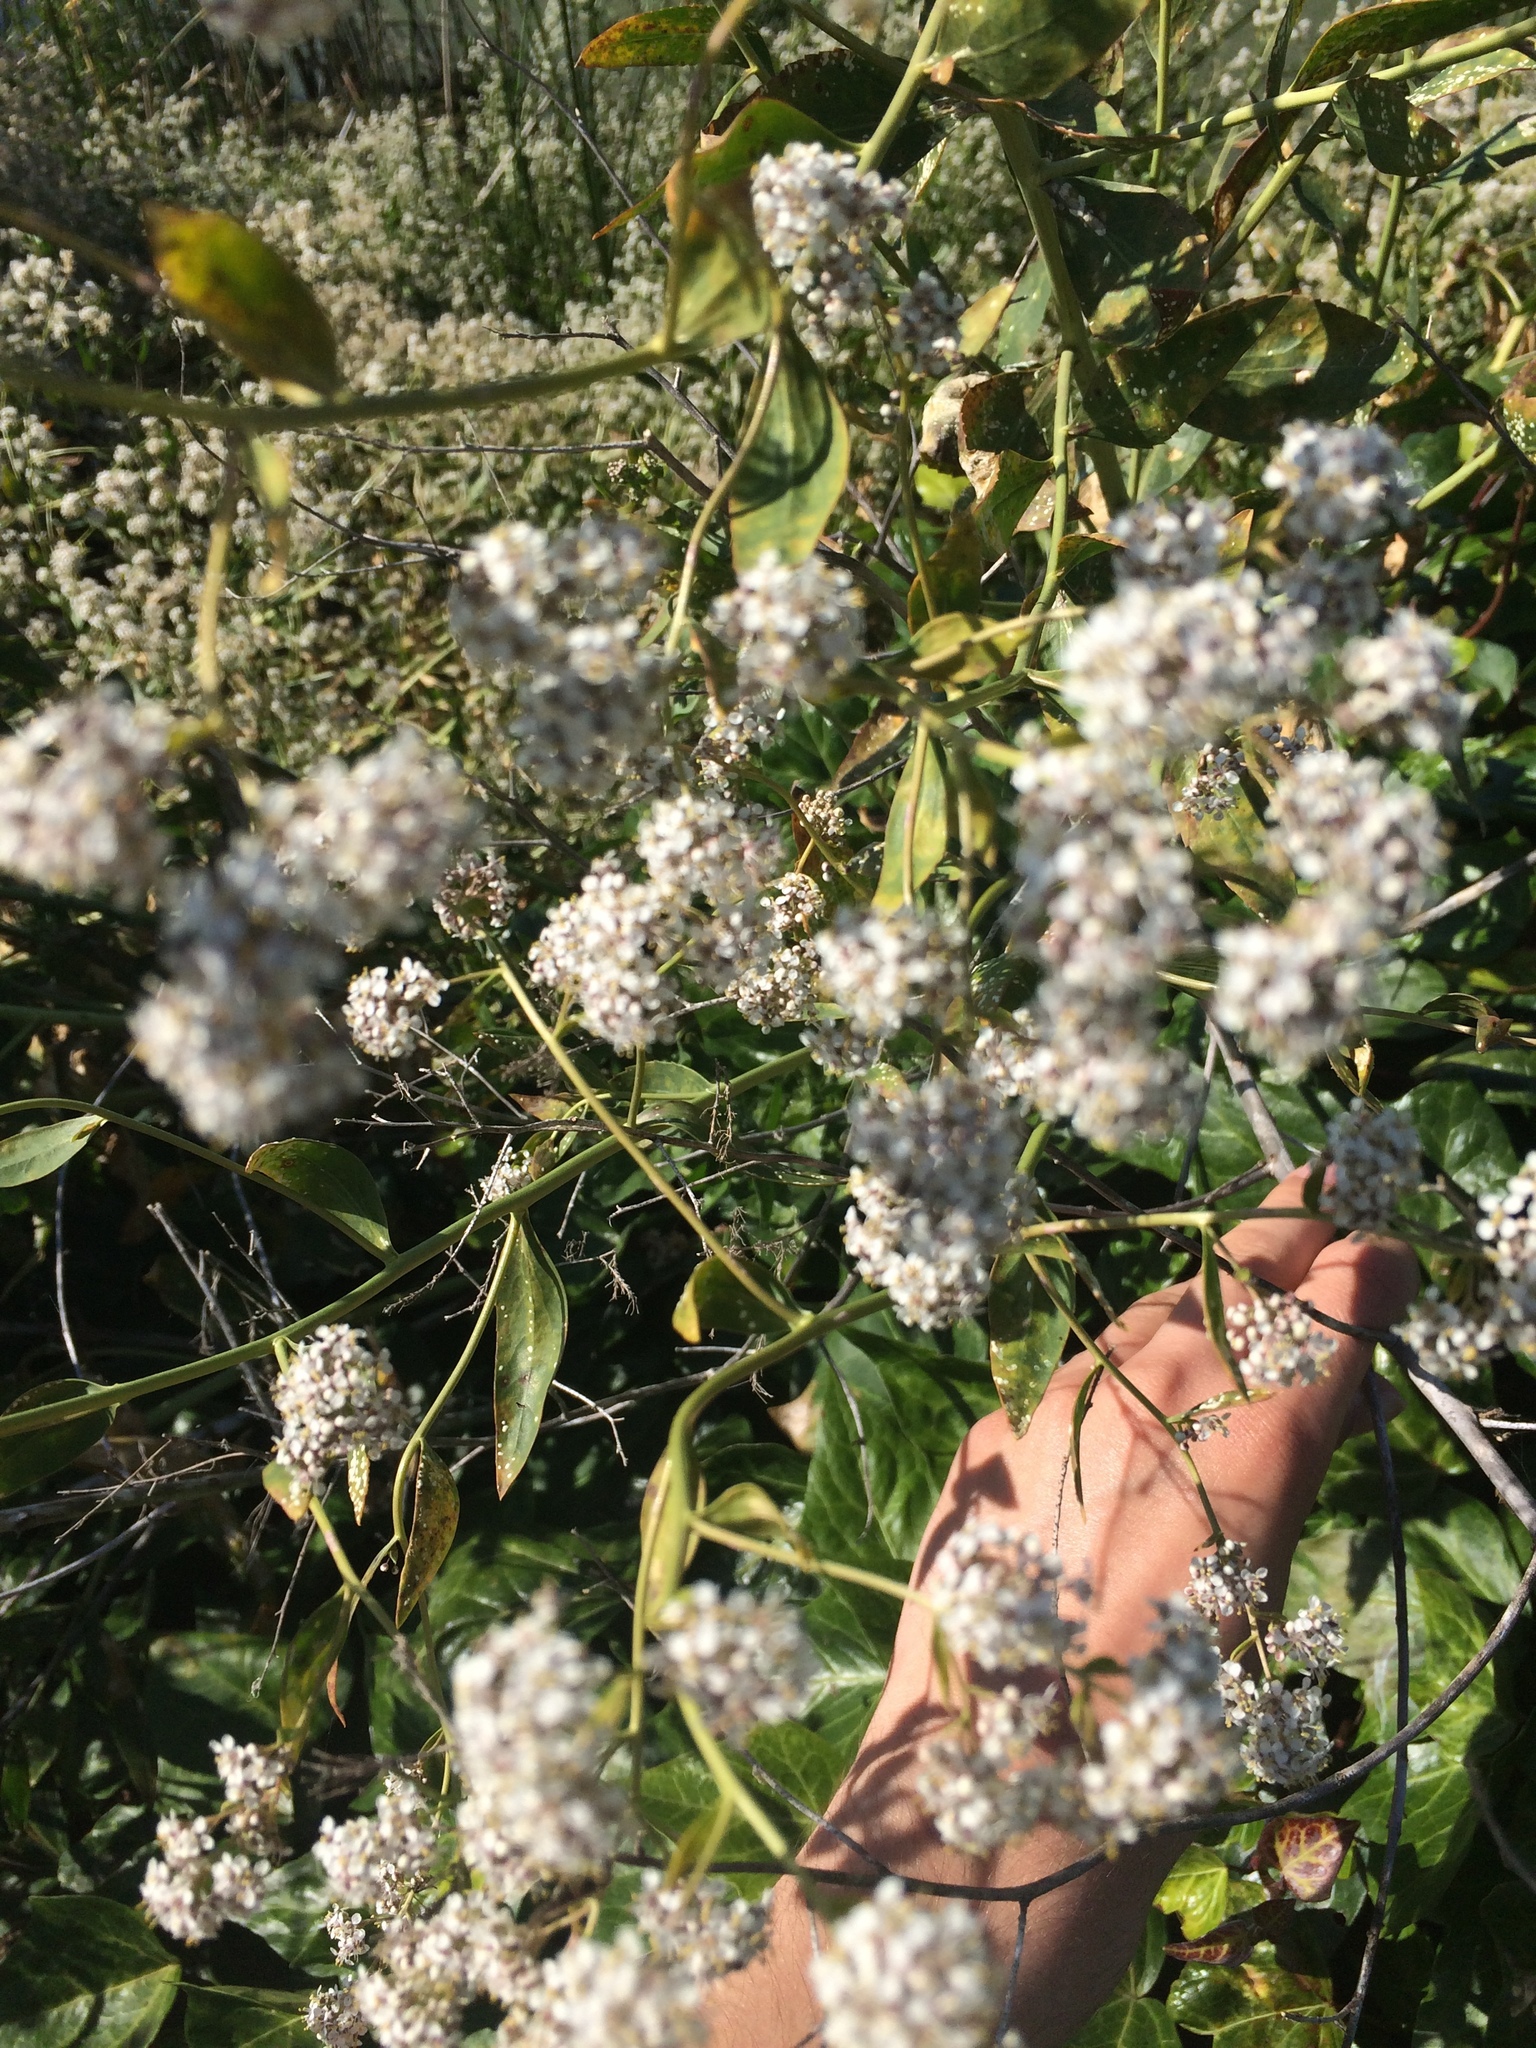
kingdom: Plantae
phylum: Tracheophyta
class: Magnoliopsida
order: Brassicales
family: Brassicaceae
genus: Lepidium
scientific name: Lepidium latifolium
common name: Dittander
